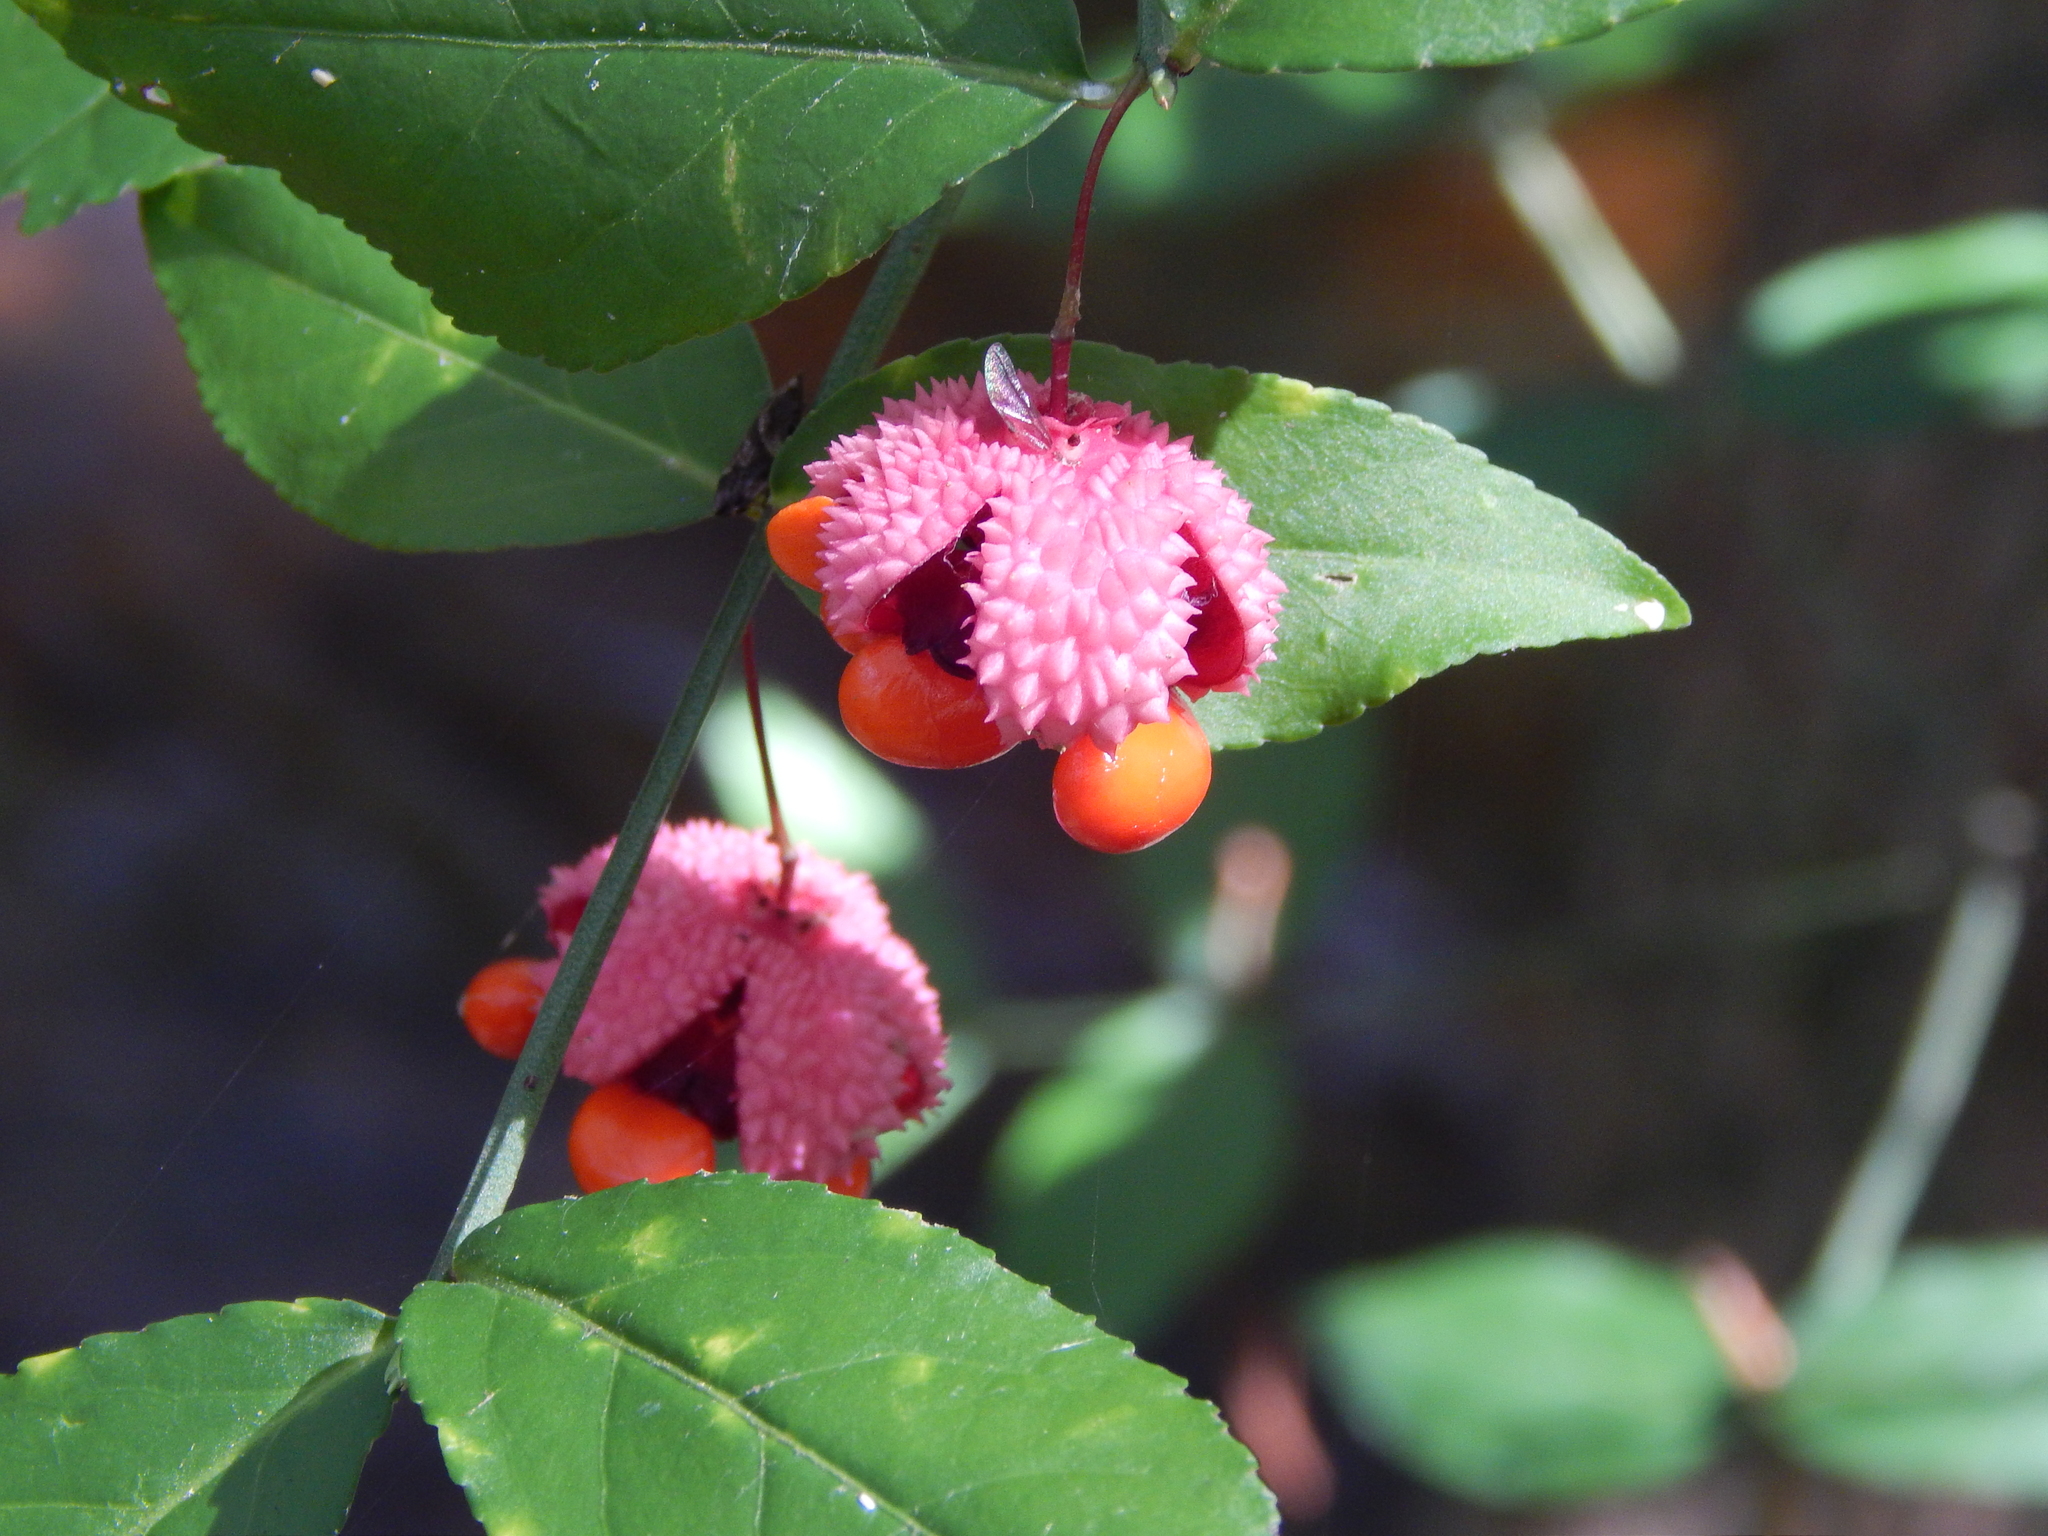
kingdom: Plantae
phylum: Tracheophyta
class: Magnoliopsida
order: Celastrales
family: Celastraceae
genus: Euonymus
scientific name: Euonymus americanus
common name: Bursting-heart
